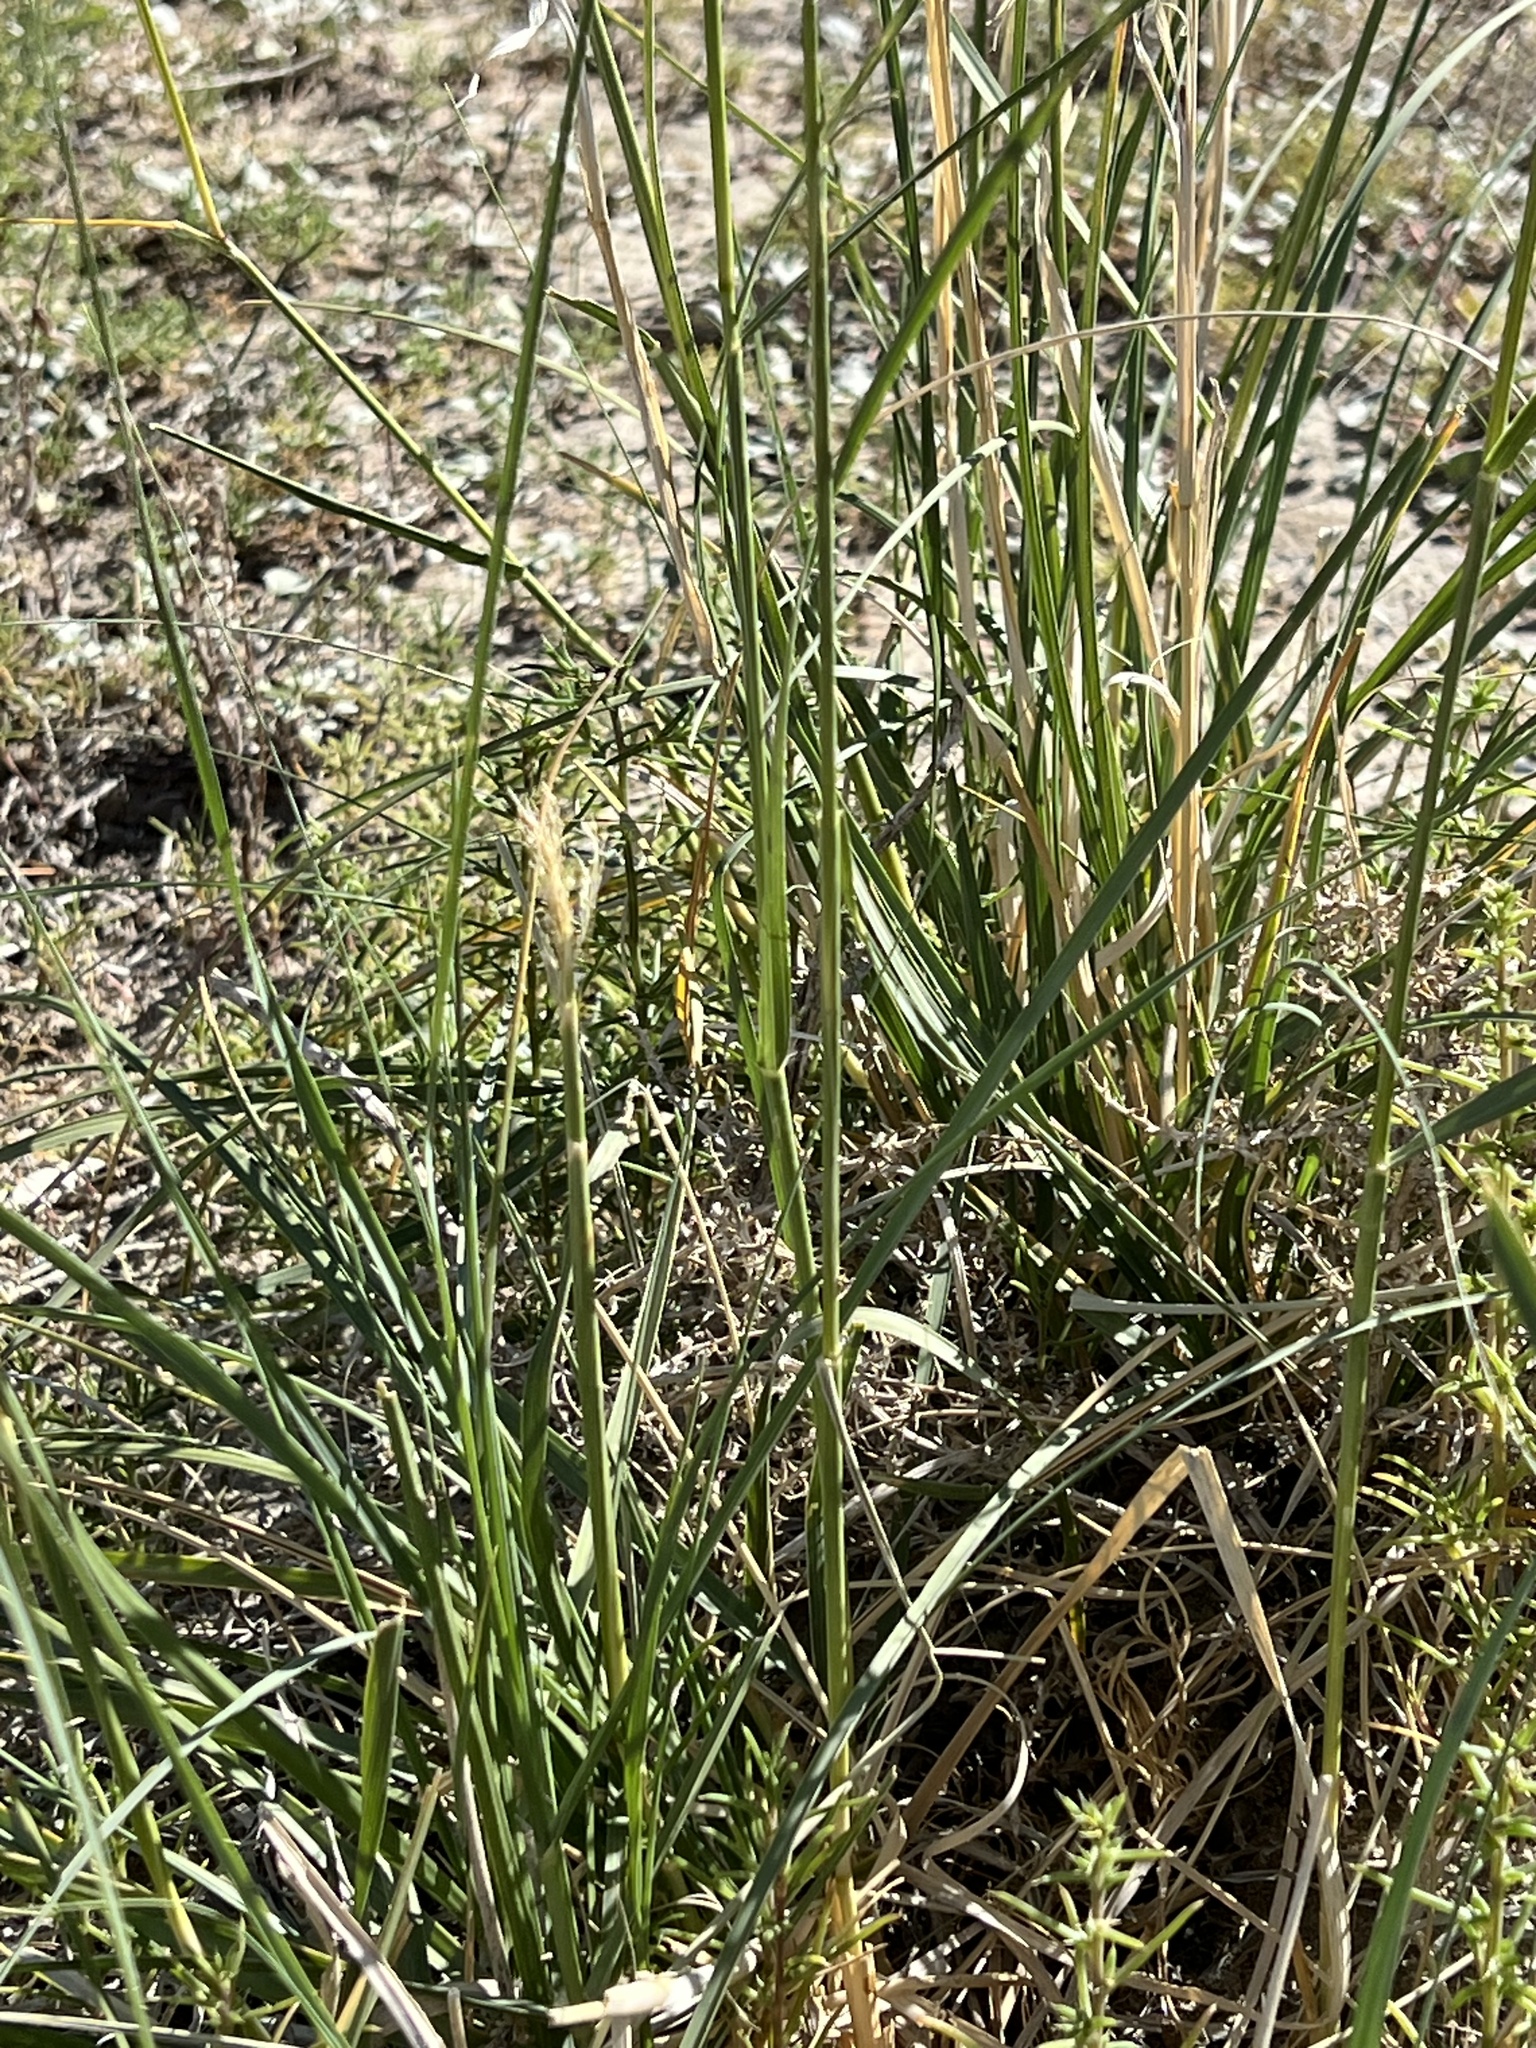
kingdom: Plantae
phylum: Tracheophyta
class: Liliopsida
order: Poales
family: Poaceae
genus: Sporobolus
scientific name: Sporobolus airoides
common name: Alkali sacaton
